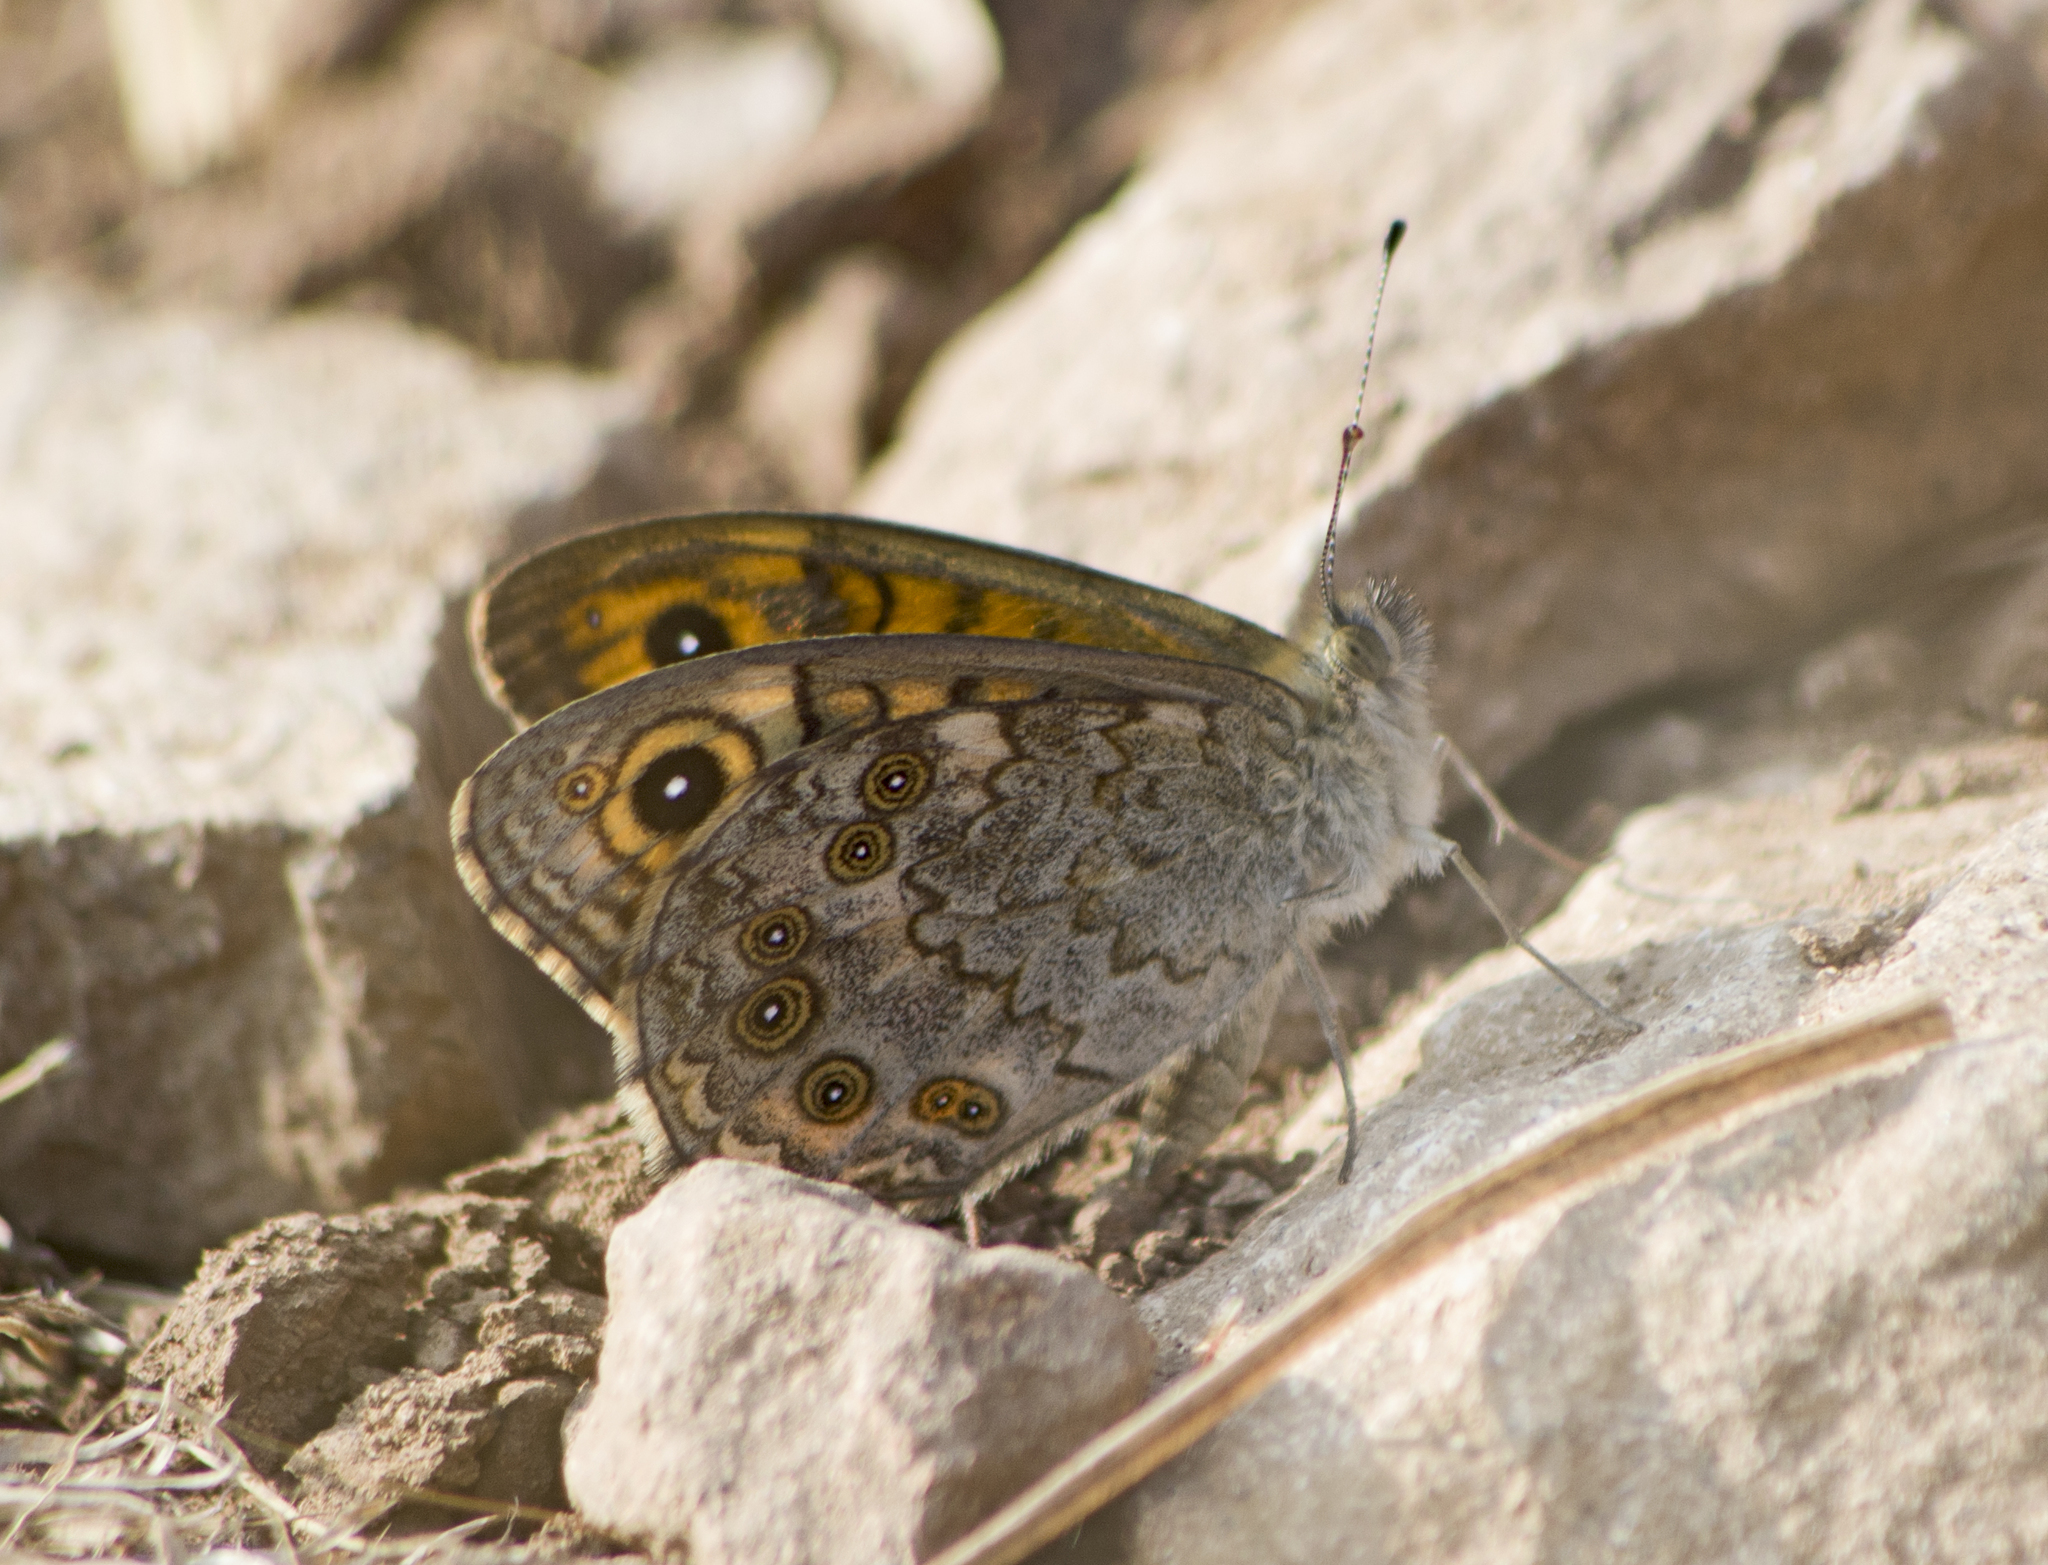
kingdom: Animalia
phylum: Arthropoda
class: Insecta
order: Lepidoptera
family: Nymphalidae
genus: Pararge
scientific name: Pararge Lasiommata megera
